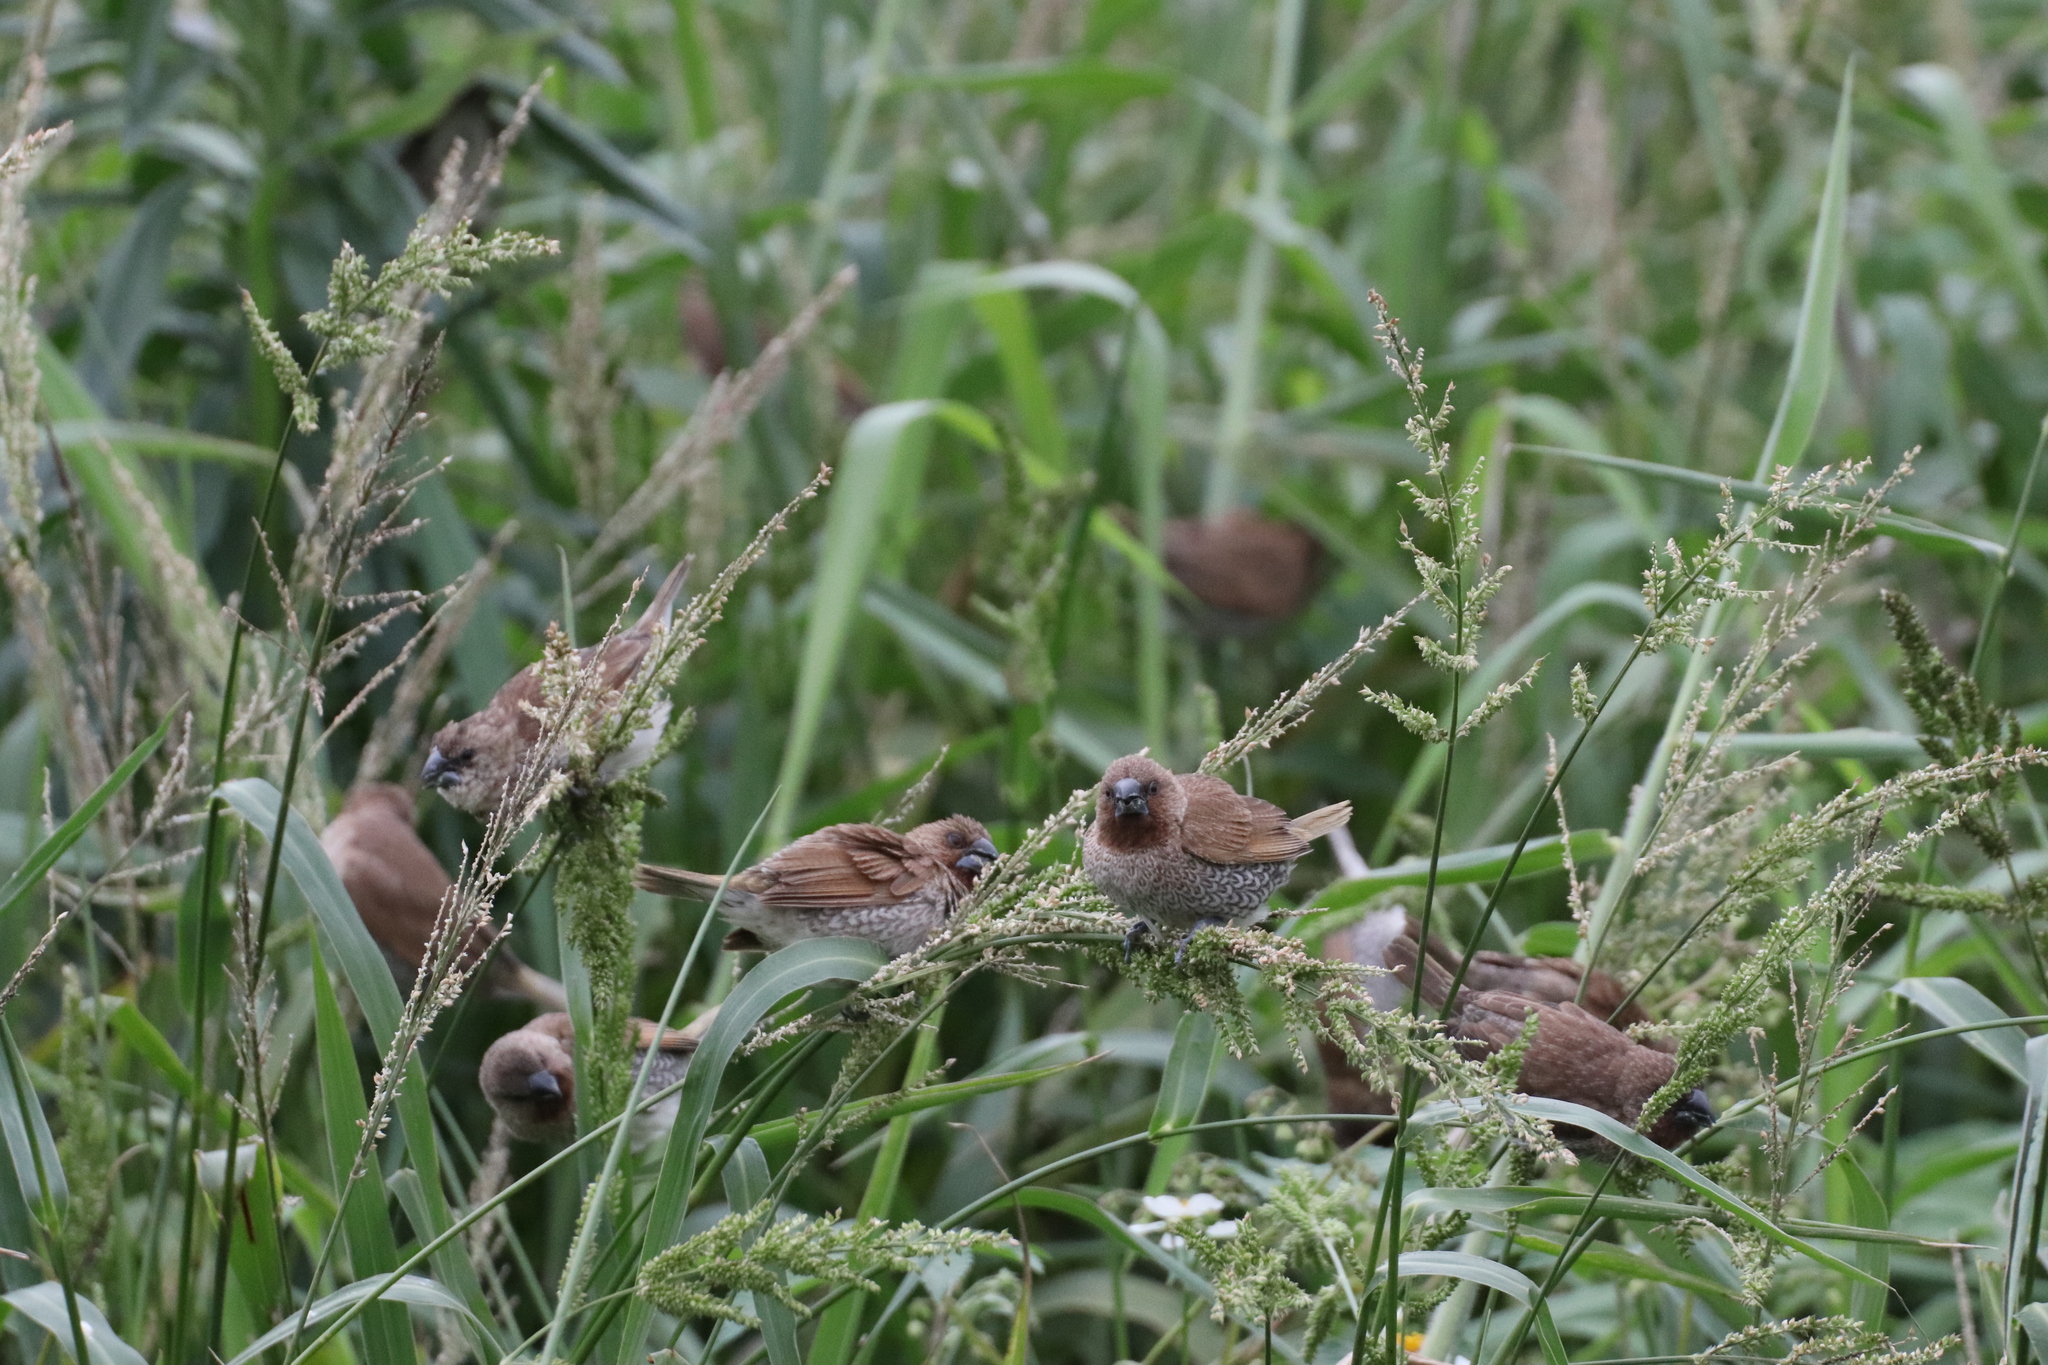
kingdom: Animalia
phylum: Chordata
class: Aves
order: Passeriformes
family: Estrildidae
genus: Lonchura
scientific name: Lonchura punctulata
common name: Scaly-breasted munia
